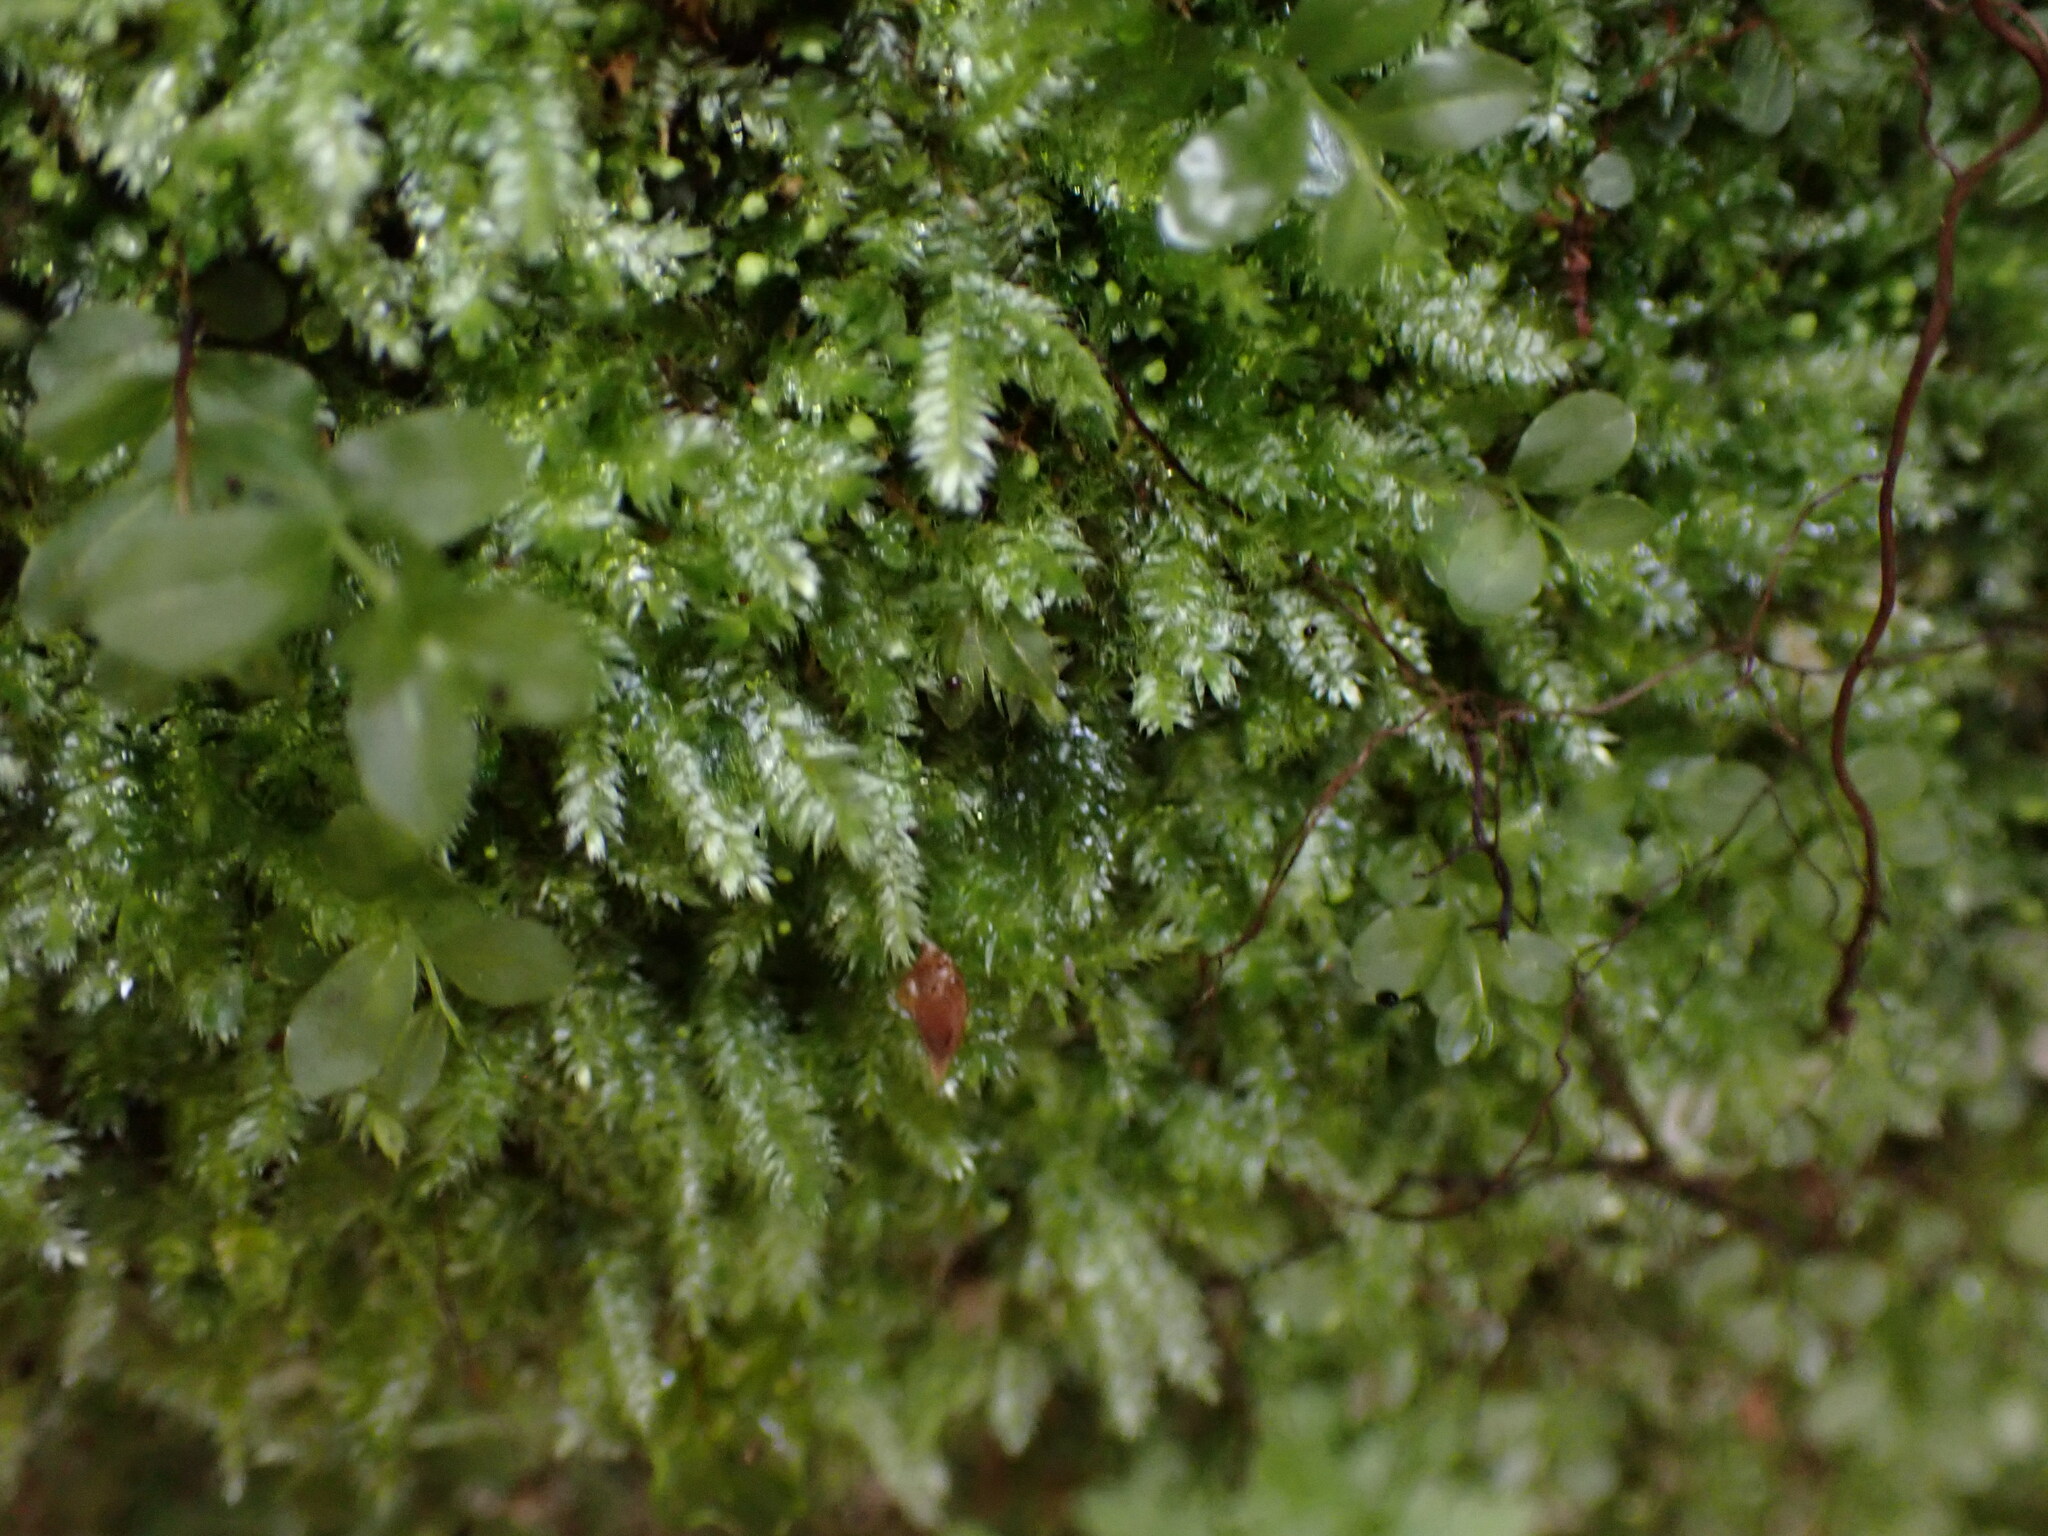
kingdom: Plantae
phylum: Bryophyta
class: Bryopsida
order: Hypnales
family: Plagiotheciaceae
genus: Pseudotaxiphyllum
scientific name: Pseudotaxiphyllum elegans
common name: Elegant silk moss
